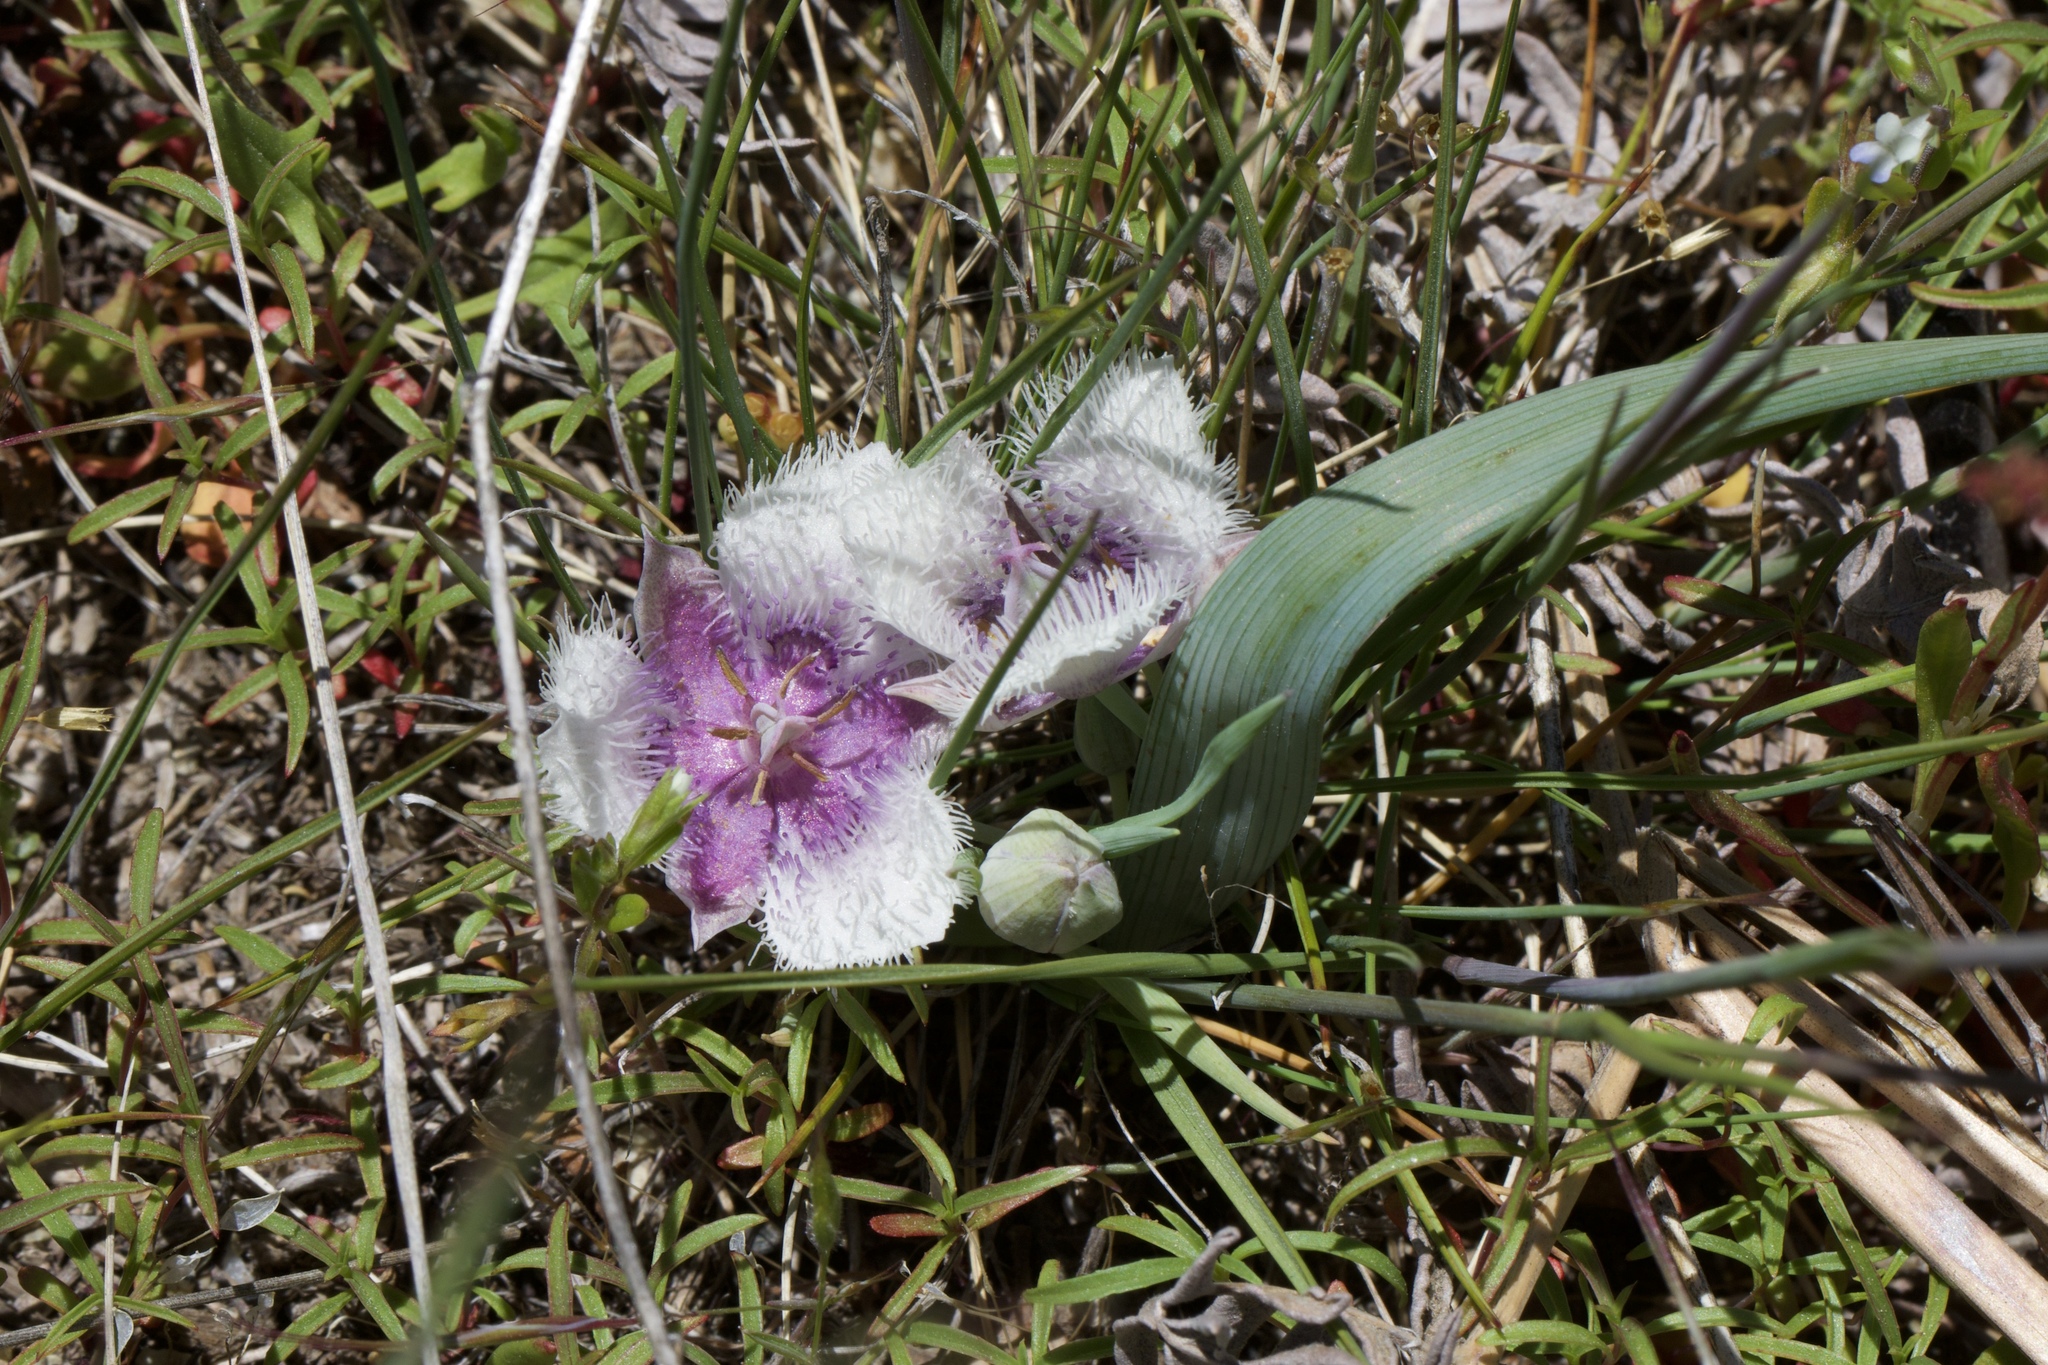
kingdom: Plantae
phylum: Tracheophyta
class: Liliopsida
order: Liliales
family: Liliaceae
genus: Calochortus
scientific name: Calochortus coeruleus
